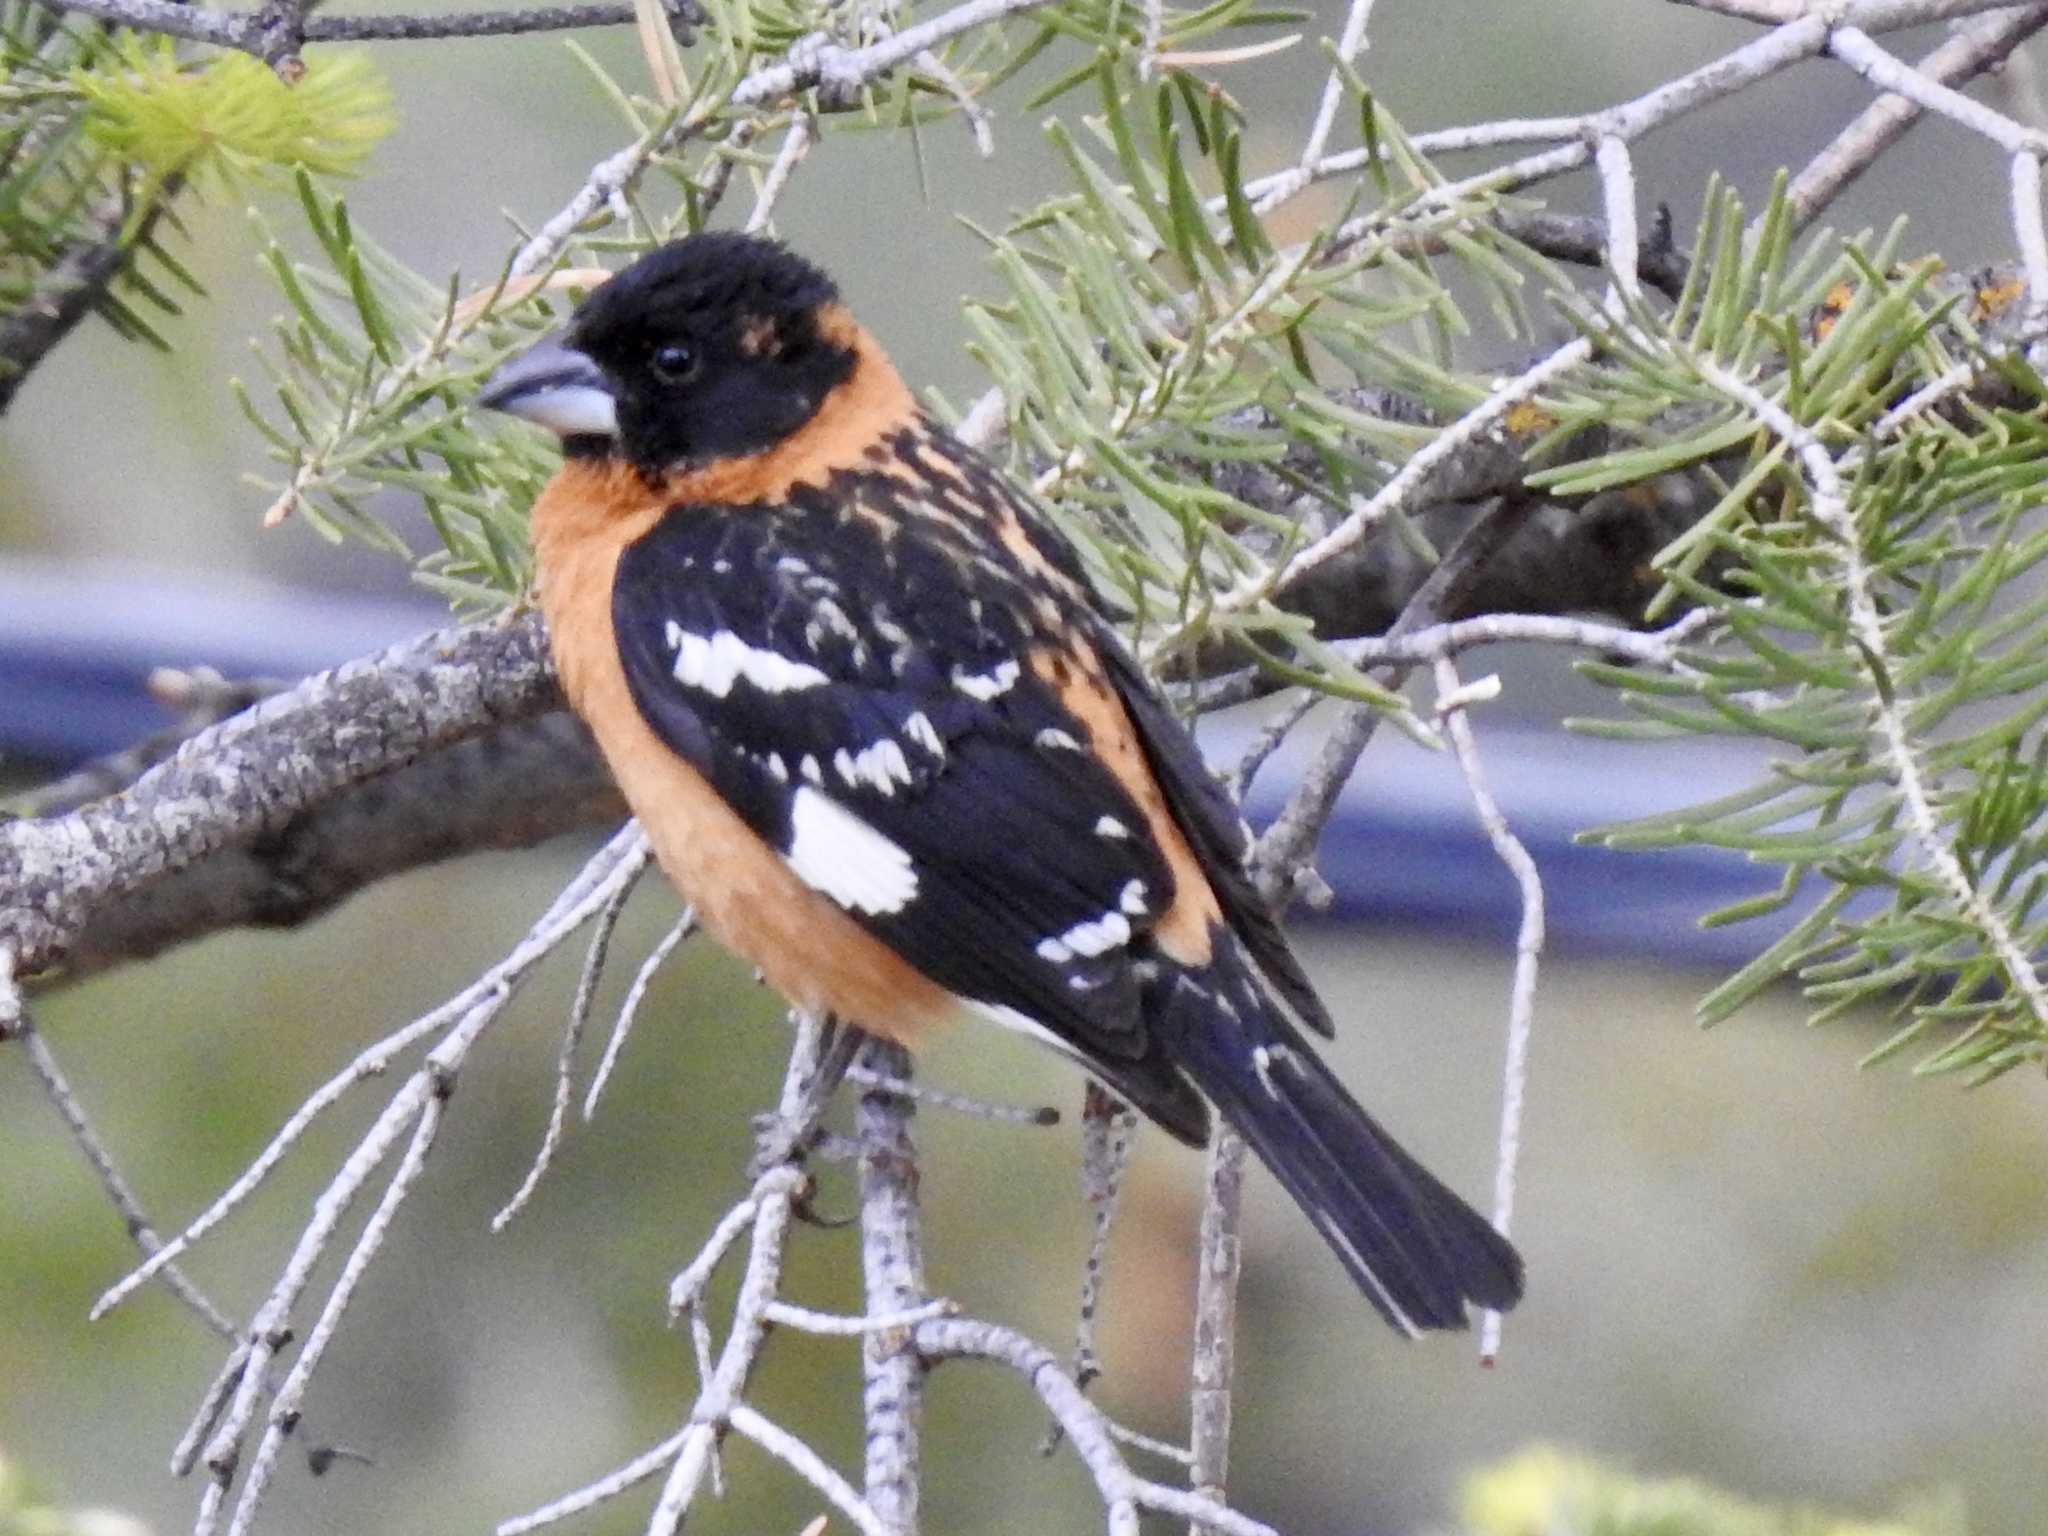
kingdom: Animalia
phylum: Chordata
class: Aves
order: Passeriformes
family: Cardinalidae
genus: Pheucticus
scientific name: Pheucticus melanocephalus
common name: Black-headed grosbeak
